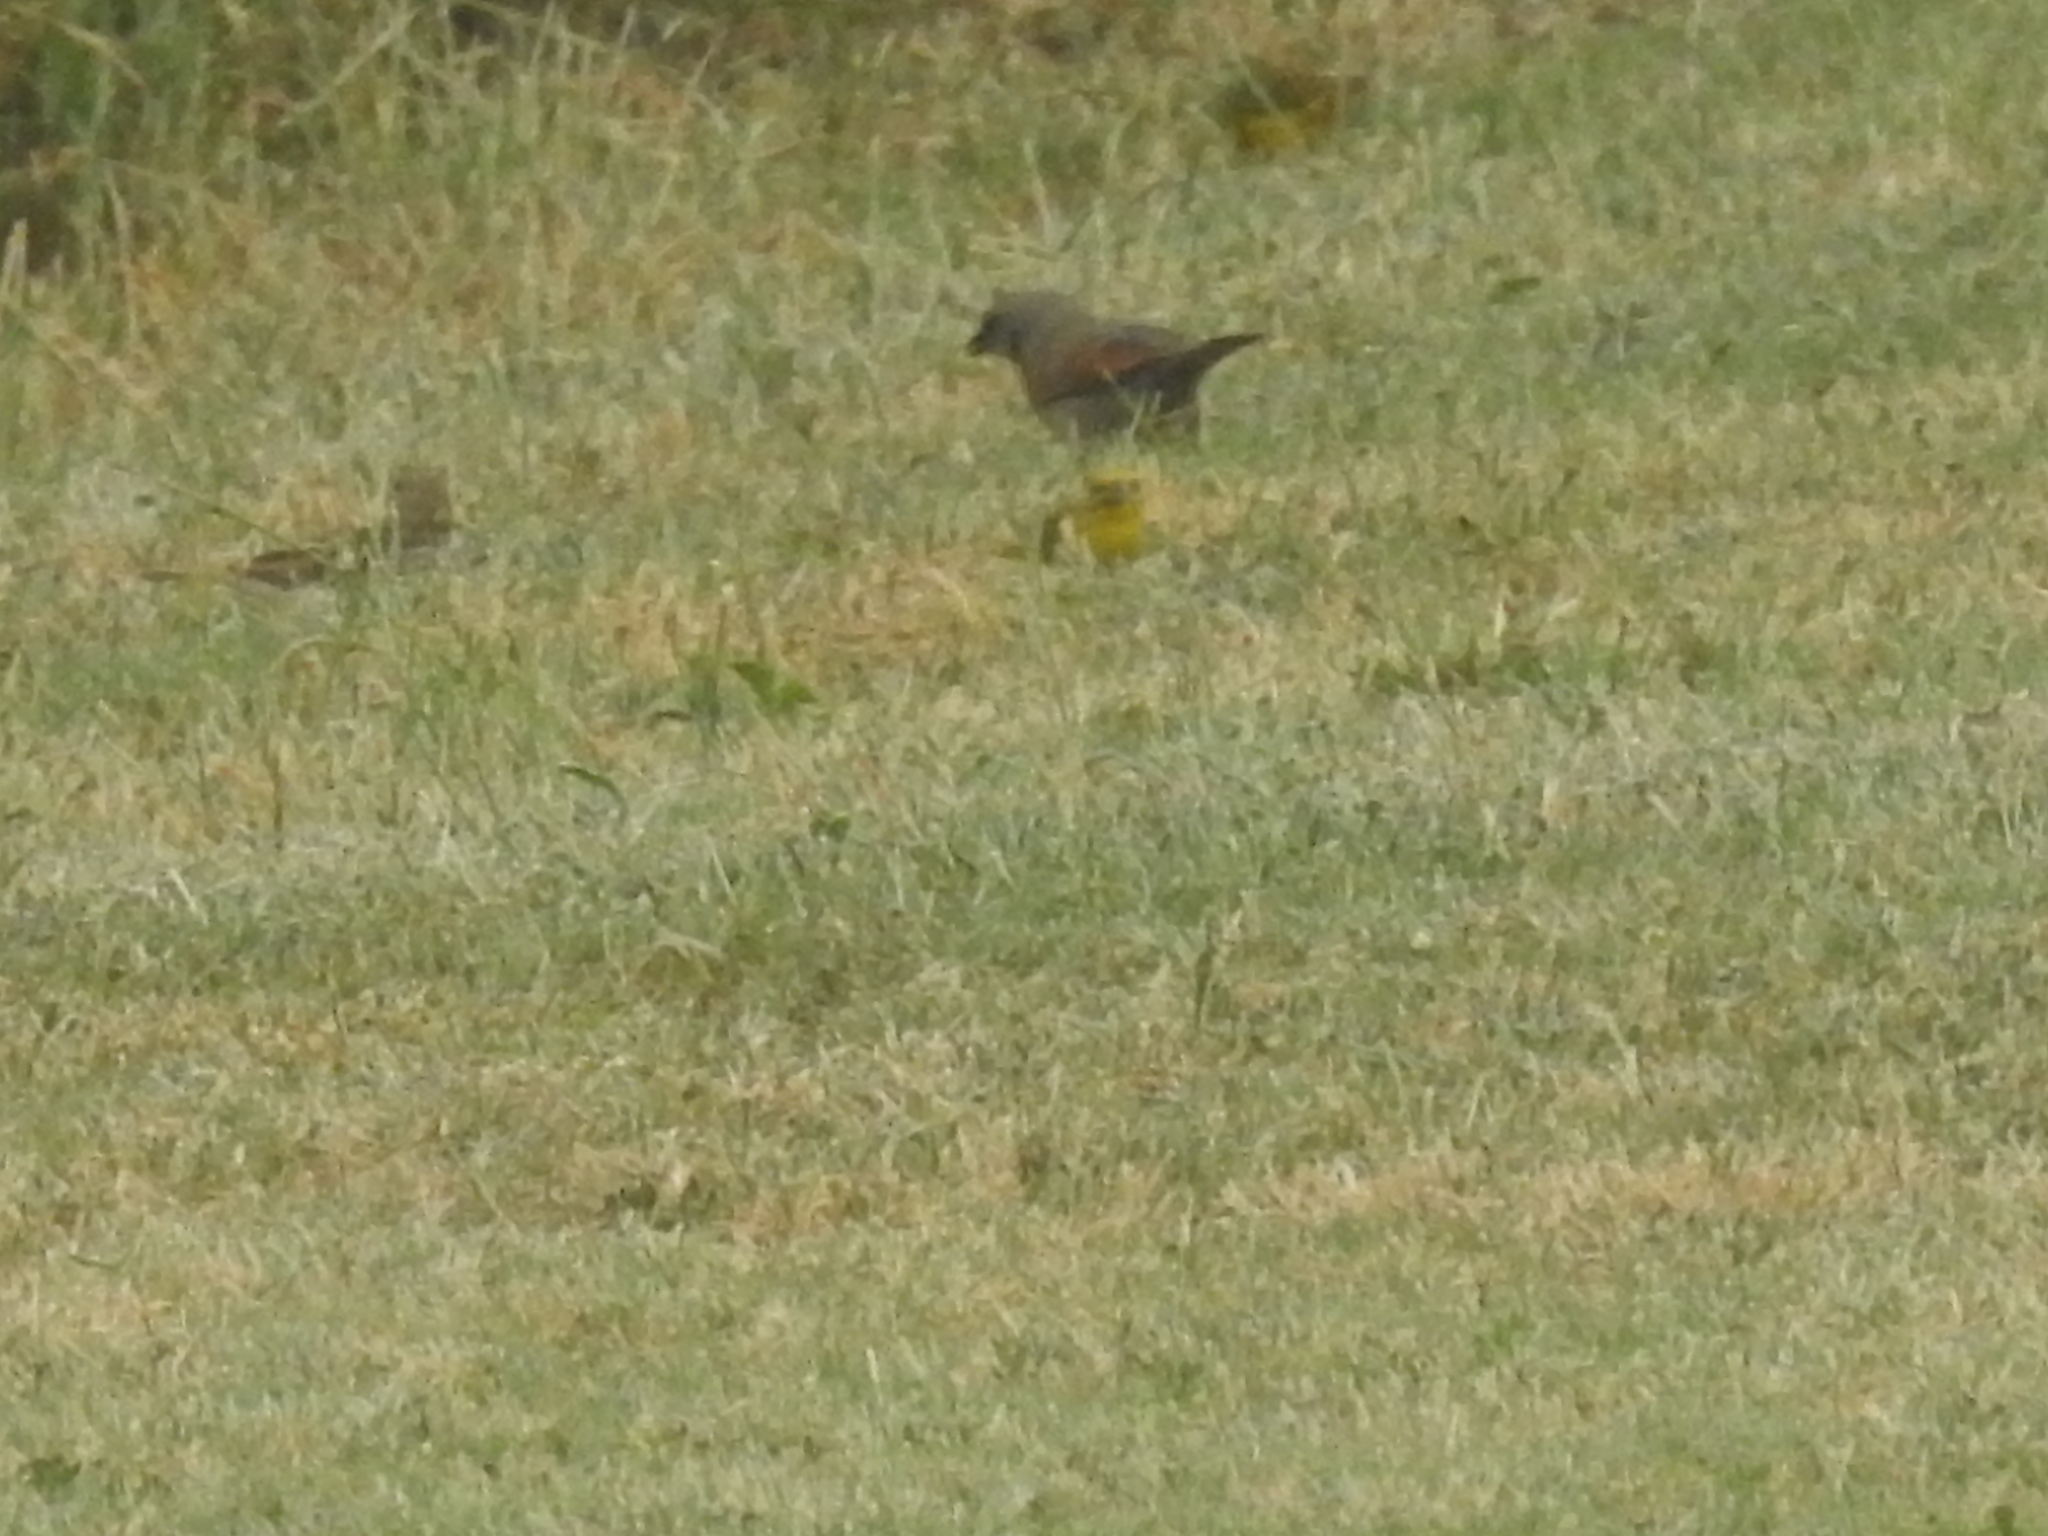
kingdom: Animalia
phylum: Chordata
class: Aves
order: Passeriformes
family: Icteridae
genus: Agelaioides
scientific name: Agelaioides badius
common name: Baywing
